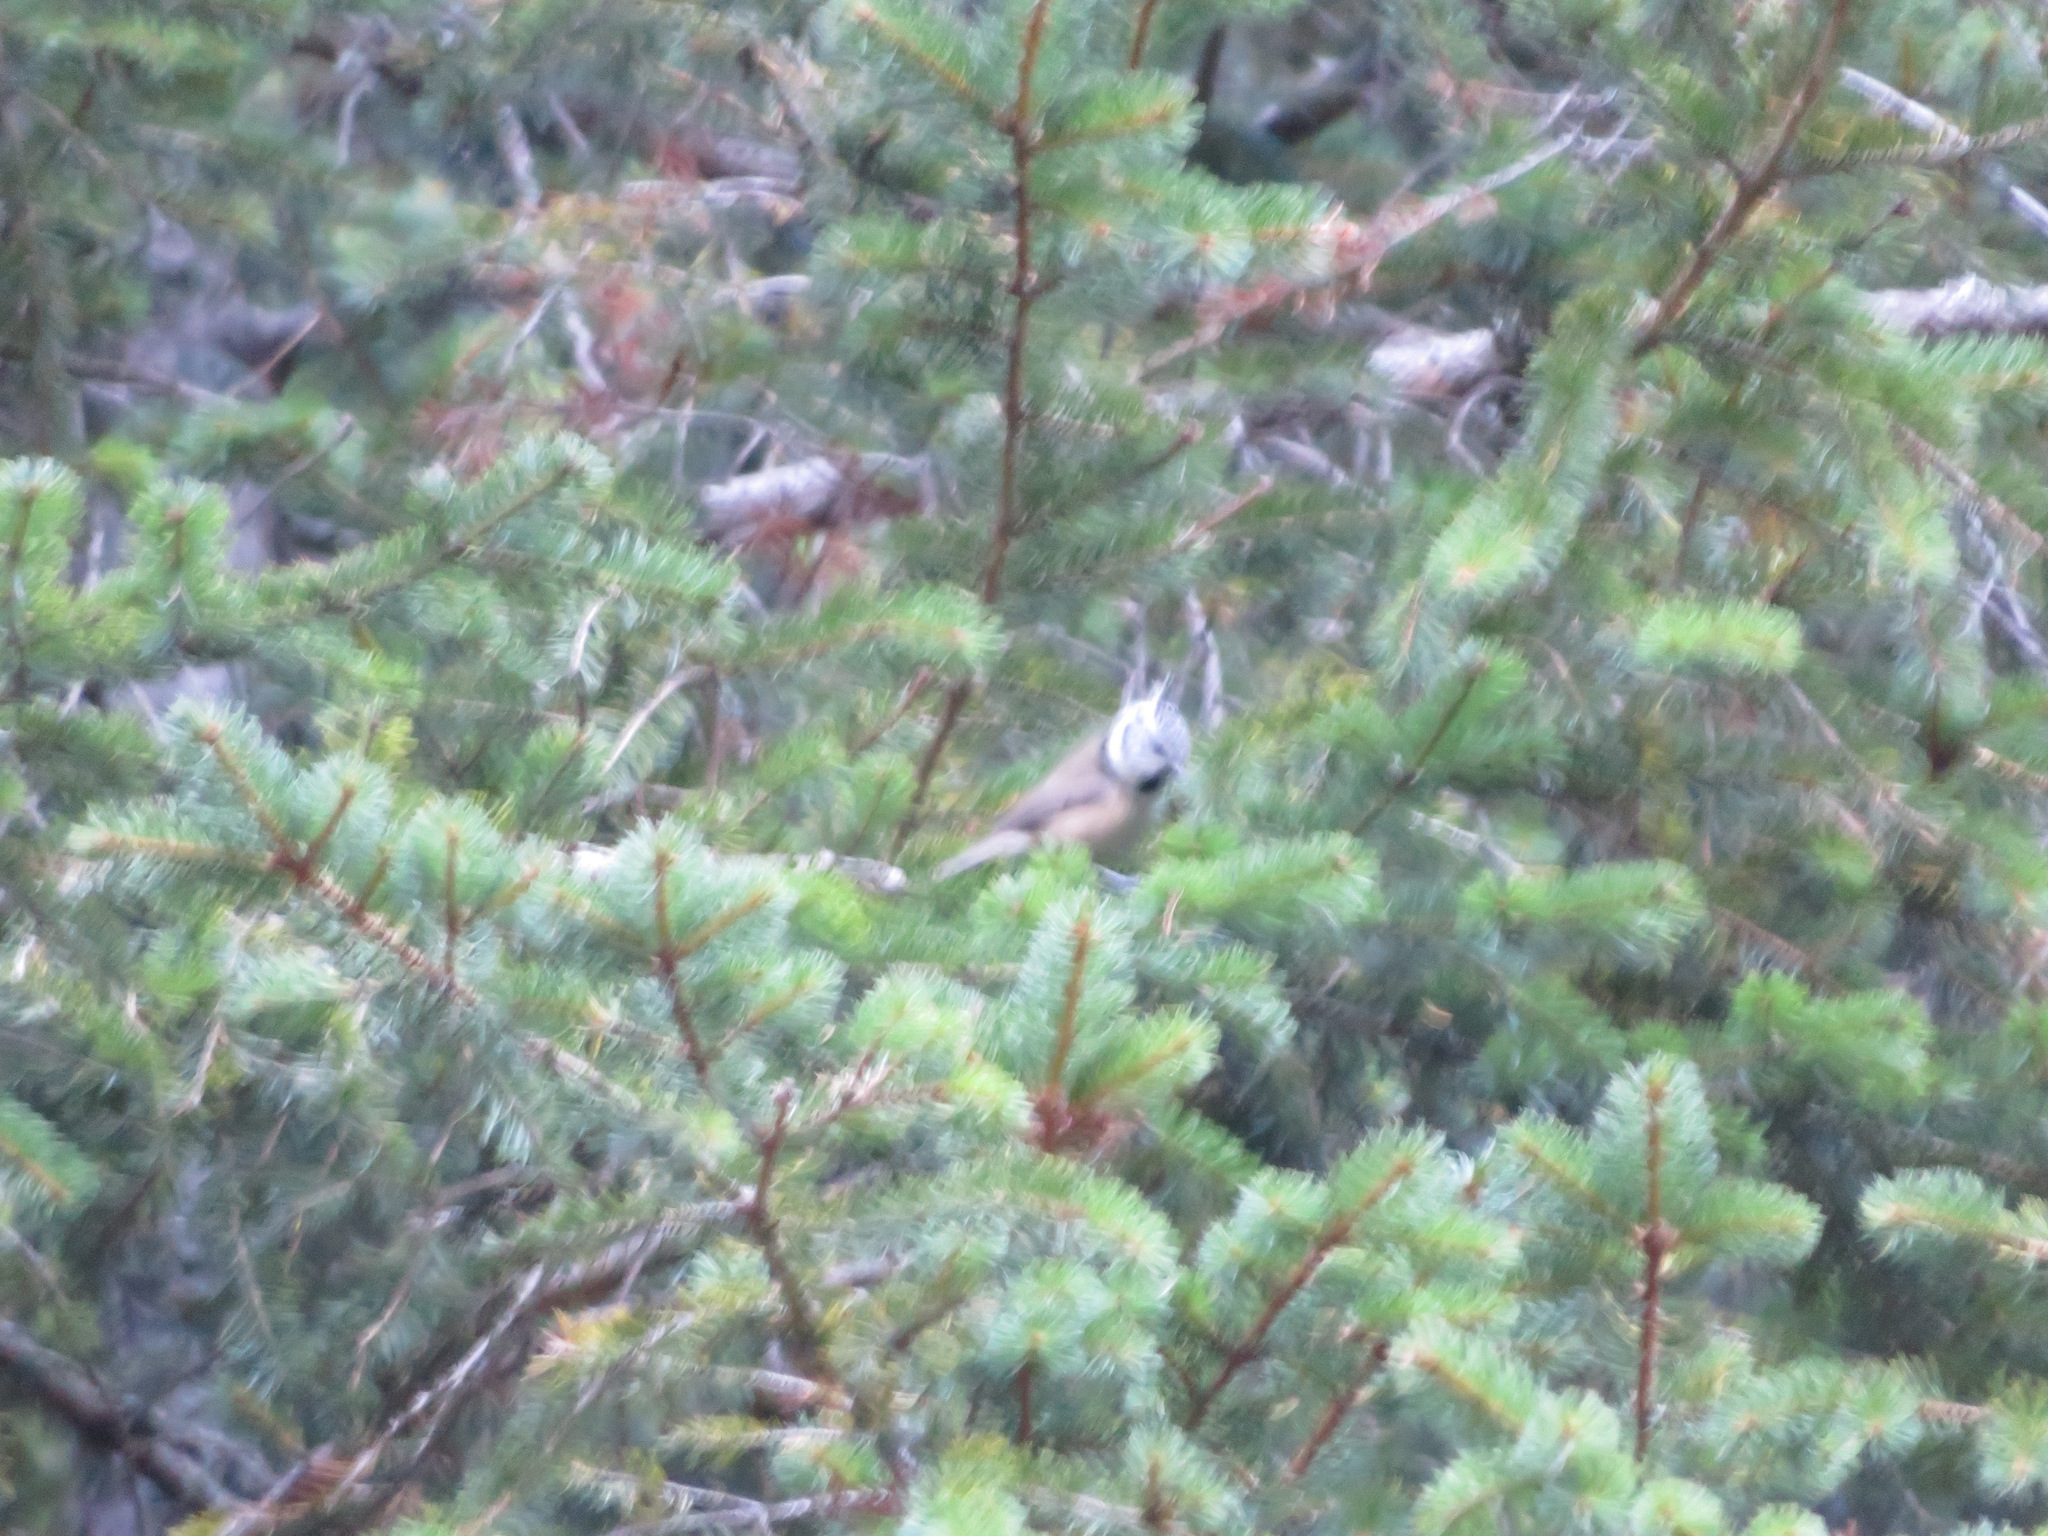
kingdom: Animalia
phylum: Chordata
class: Aves
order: Passeriformes
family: Paridae
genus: Lophophanes
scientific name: Lophophanes cristatus
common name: European crested tit
